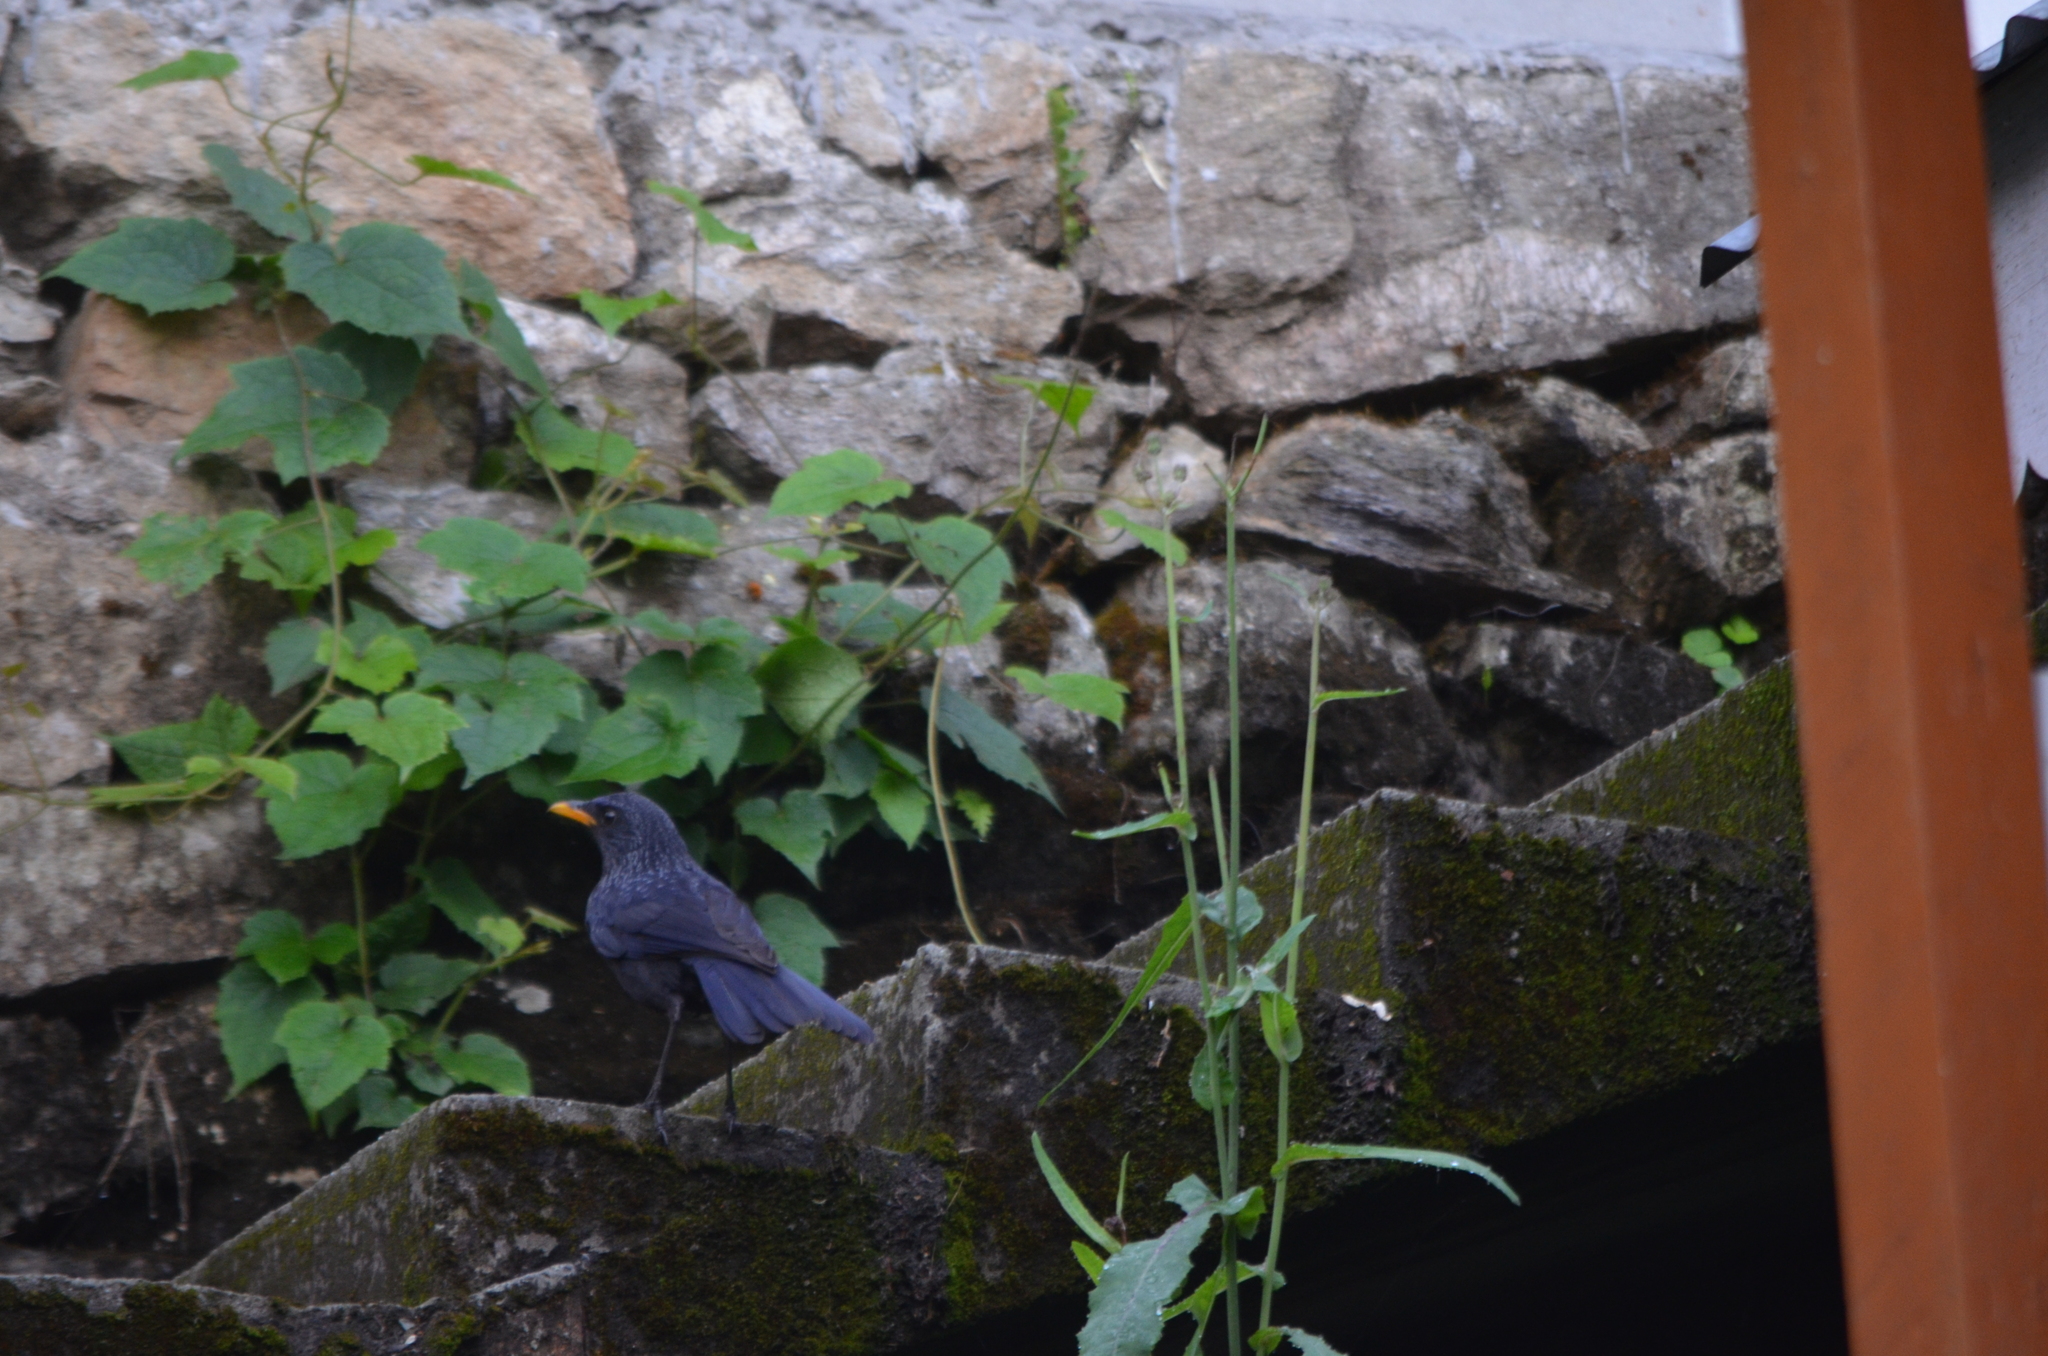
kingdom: Animalia
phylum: Chordata
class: Aves
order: Passeriformes
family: Muscicapidae
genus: Myophonus
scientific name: Myophonus caeruleus
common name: Blue whistling-thrush
